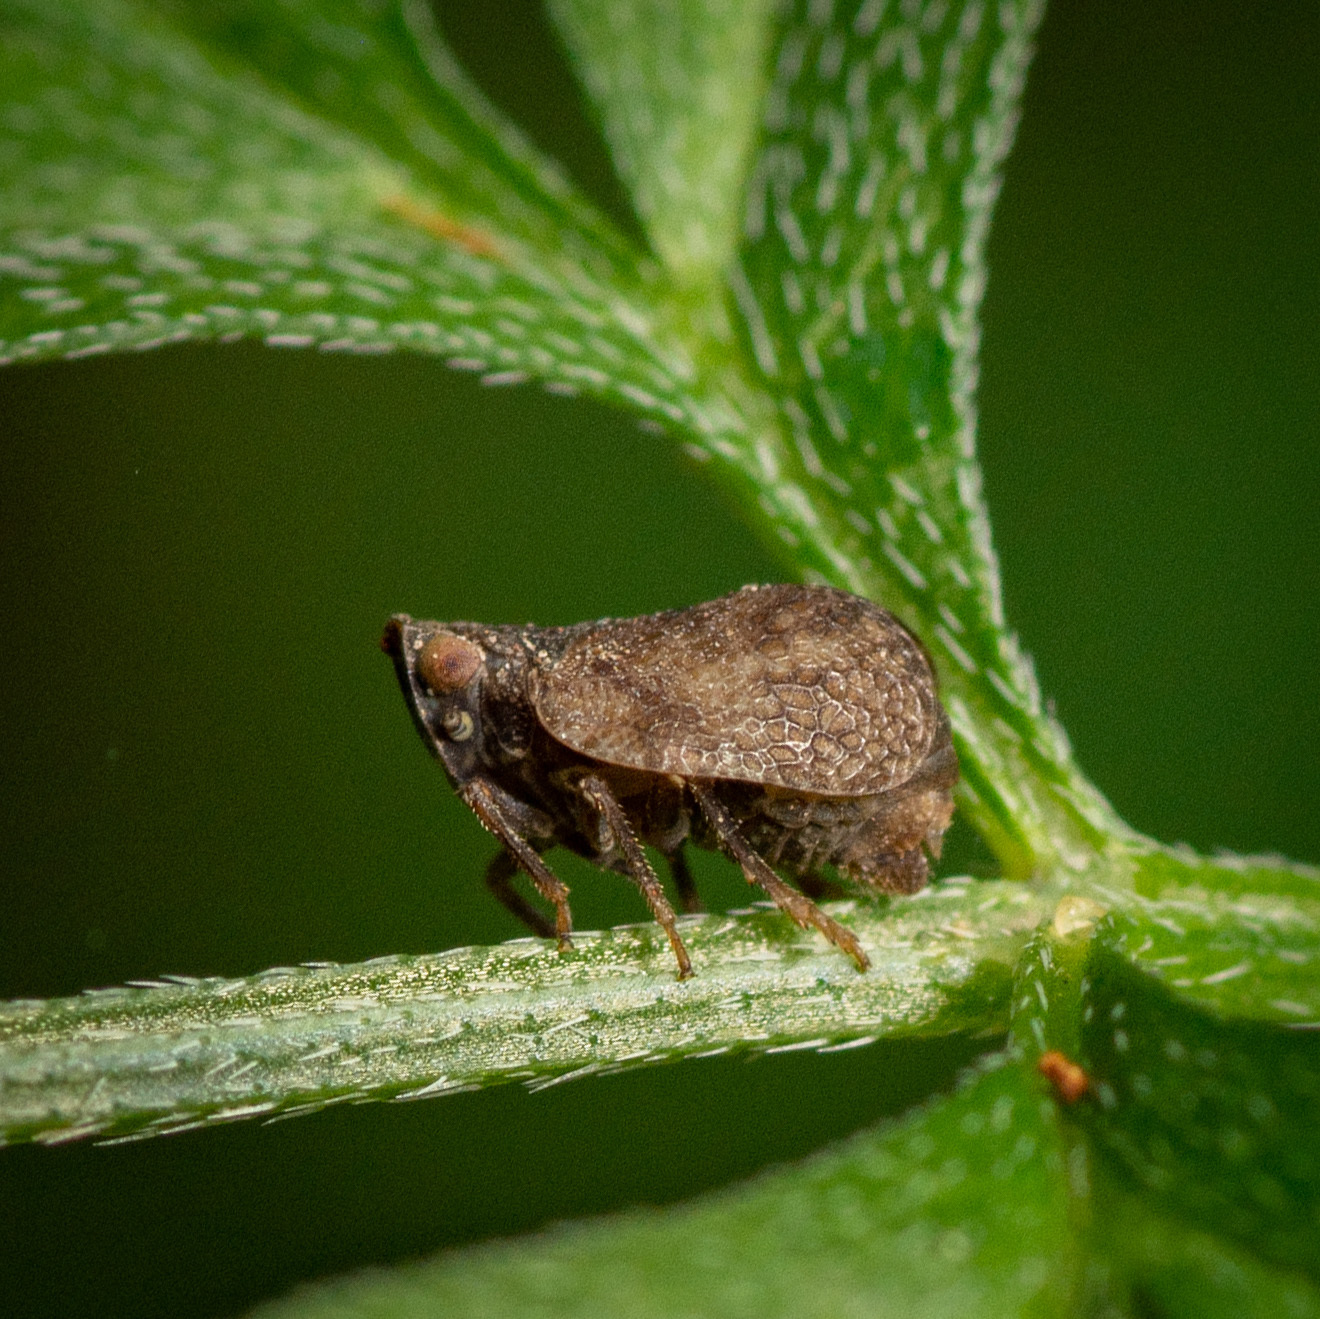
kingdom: Animalia
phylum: Arthropoda
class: Insecta
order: Hemiptera
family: Tropiduchidae
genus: Misodema
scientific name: Misodema reticulata
